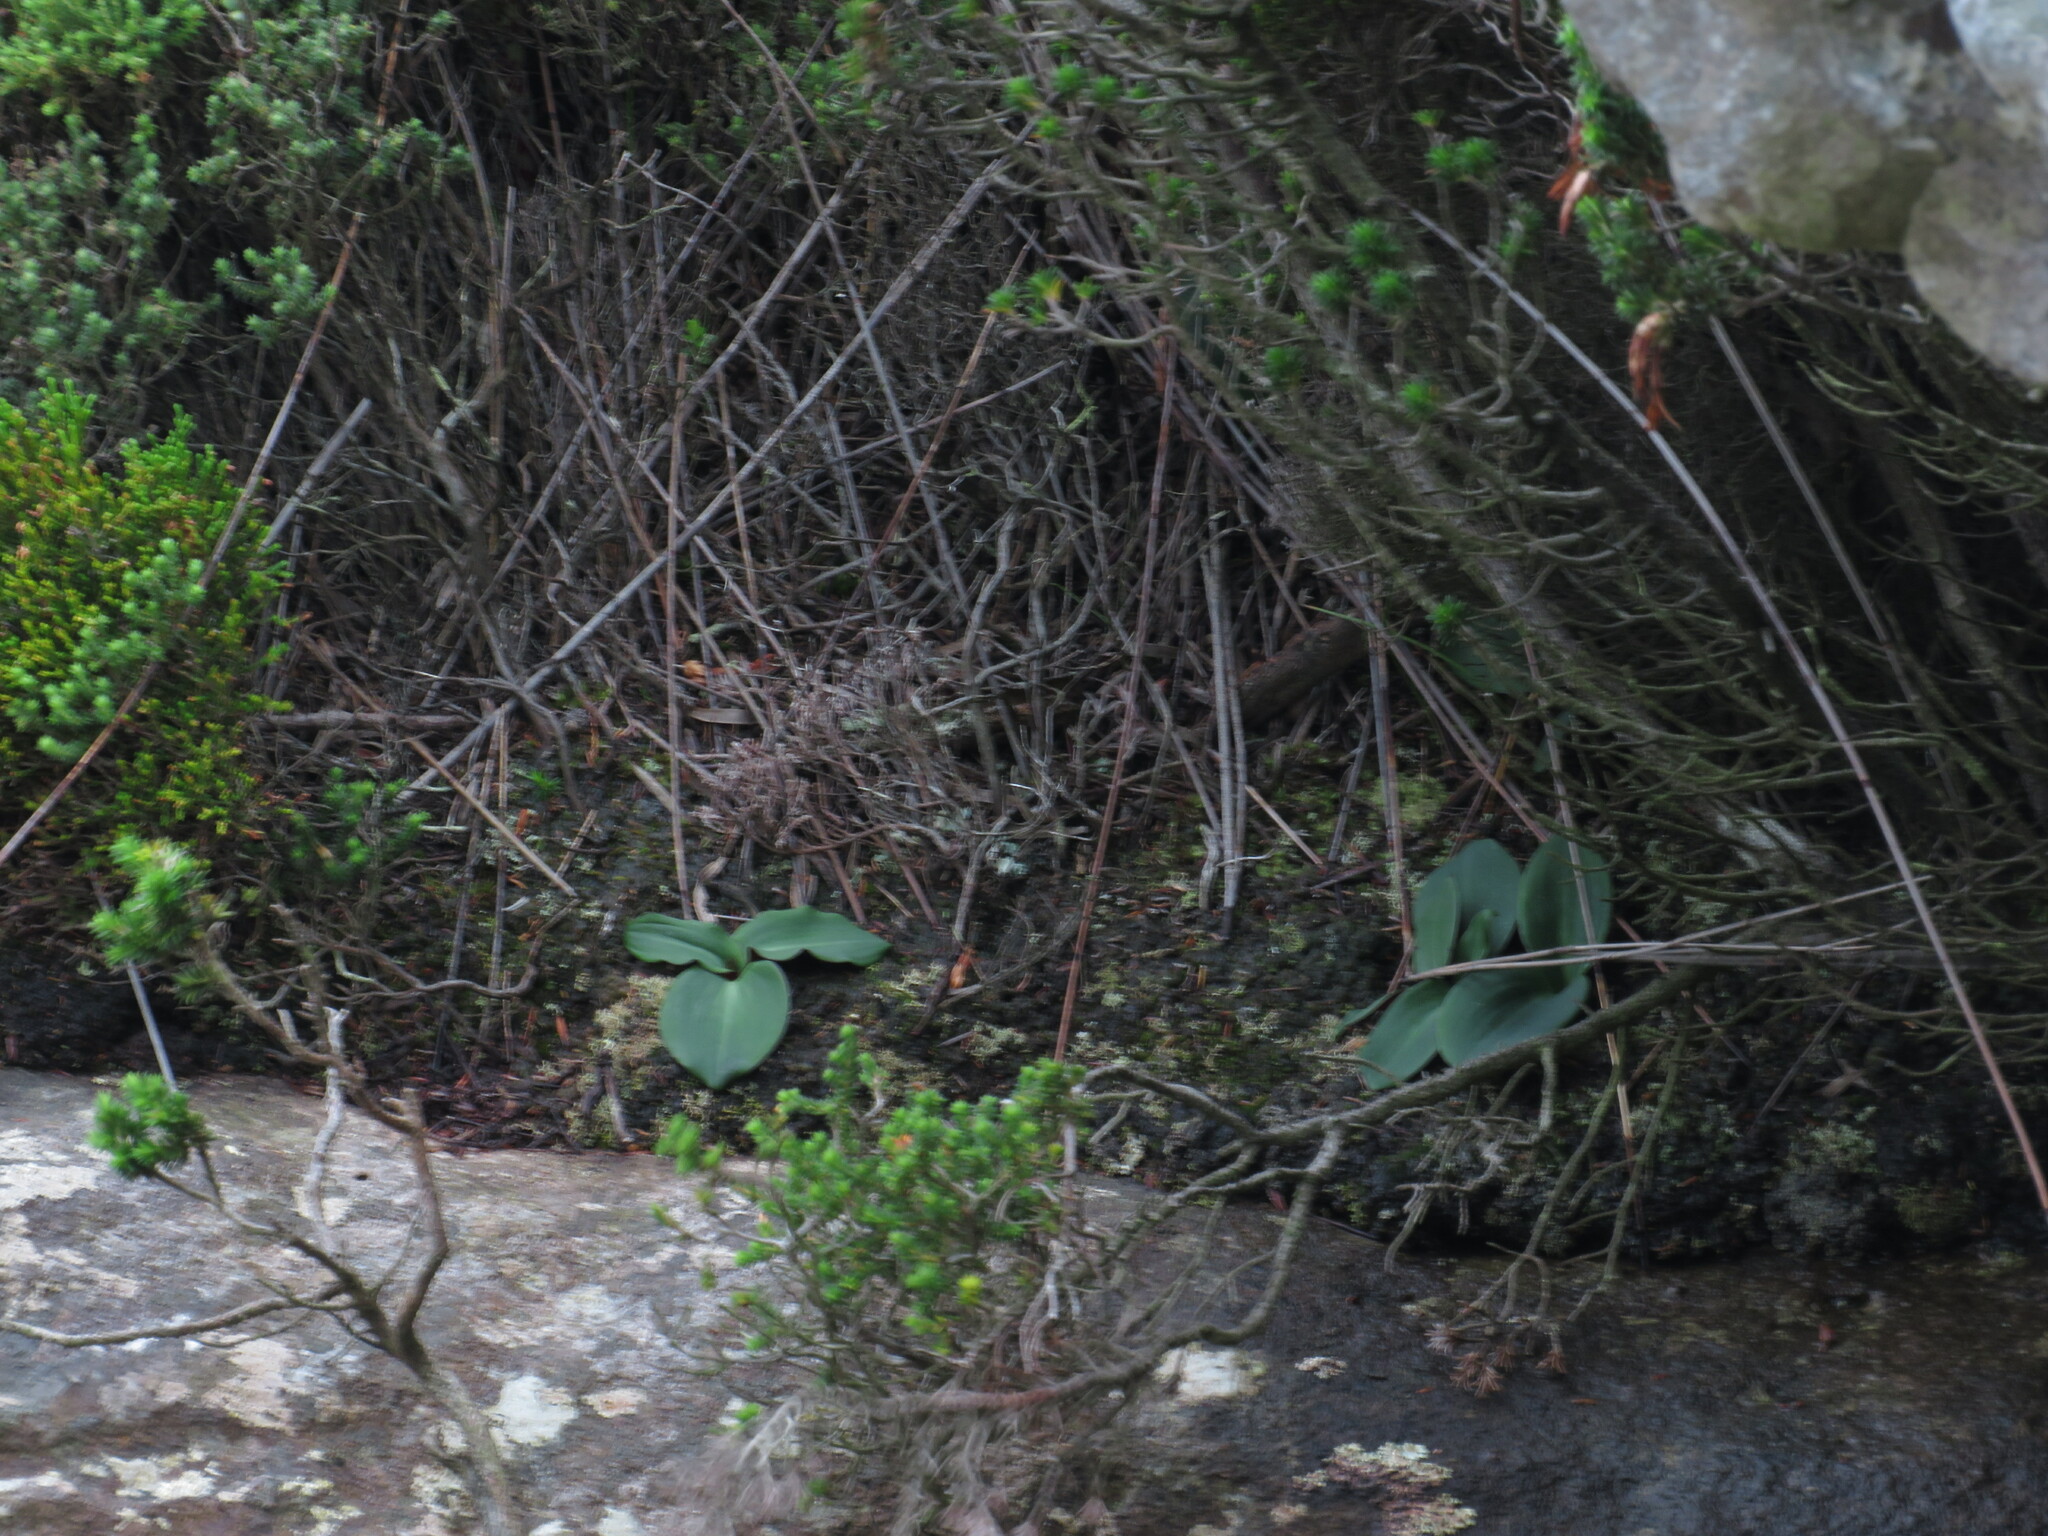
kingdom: Plantae
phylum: Tracheophyta
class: Liliopsida
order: Asparagales
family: Orchidaceae
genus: Disa
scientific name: Disa rosea
